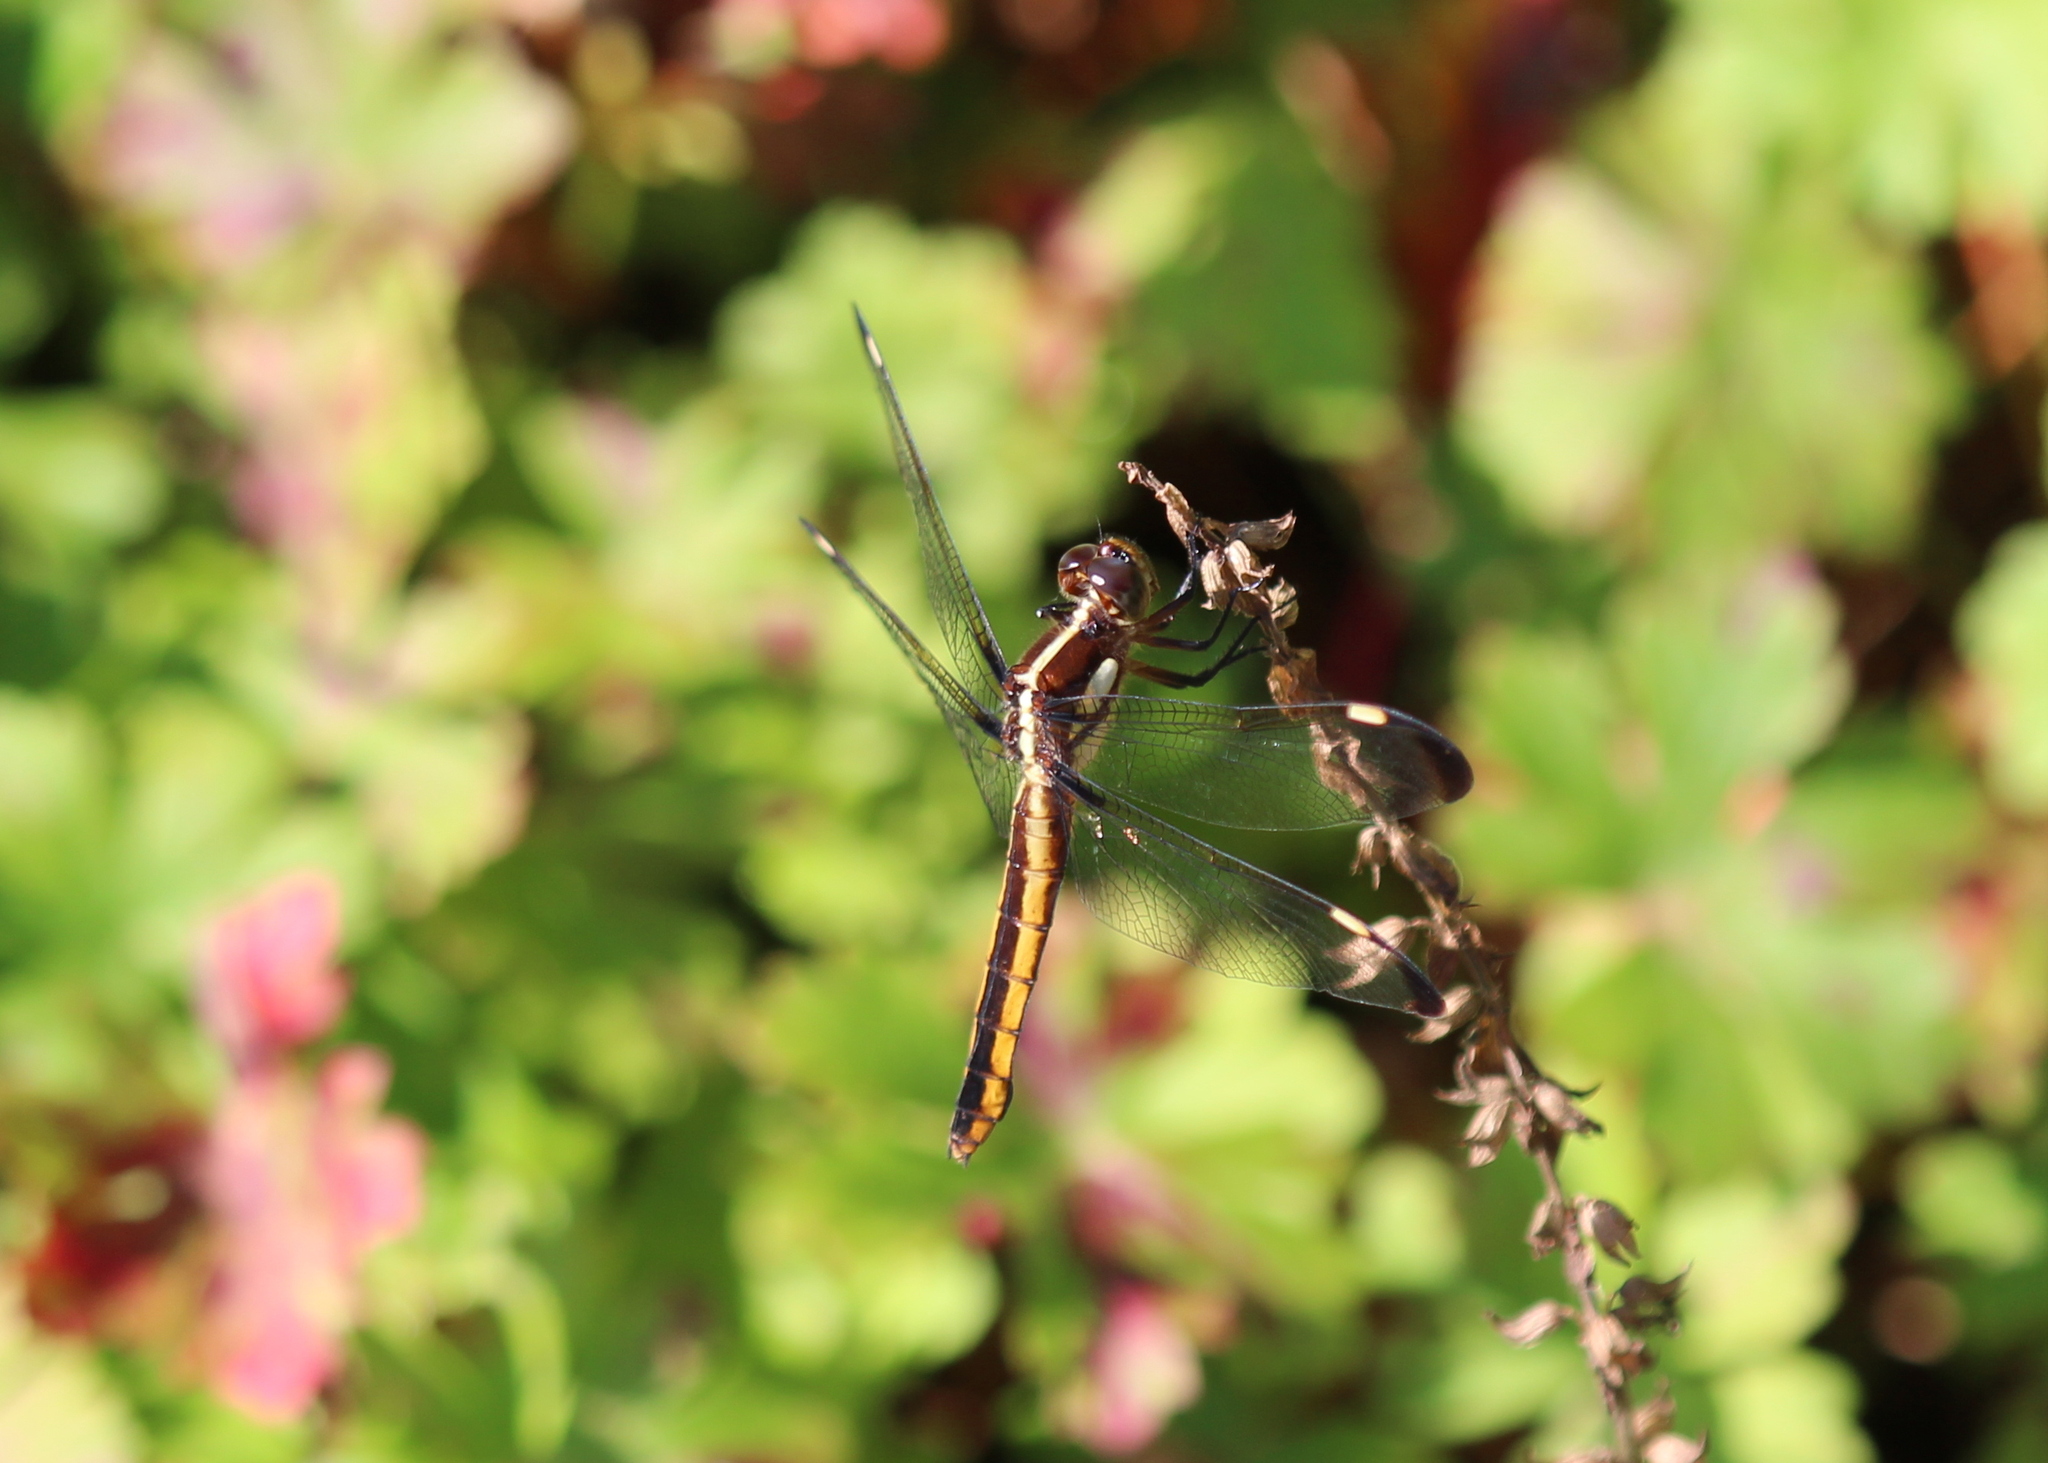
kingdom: Animalia
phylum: Arthropoda
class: Insecta
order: Odonata
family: Libellulidae
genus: Libellula
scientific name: Libellula cyanea
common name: Spangled skimmer
